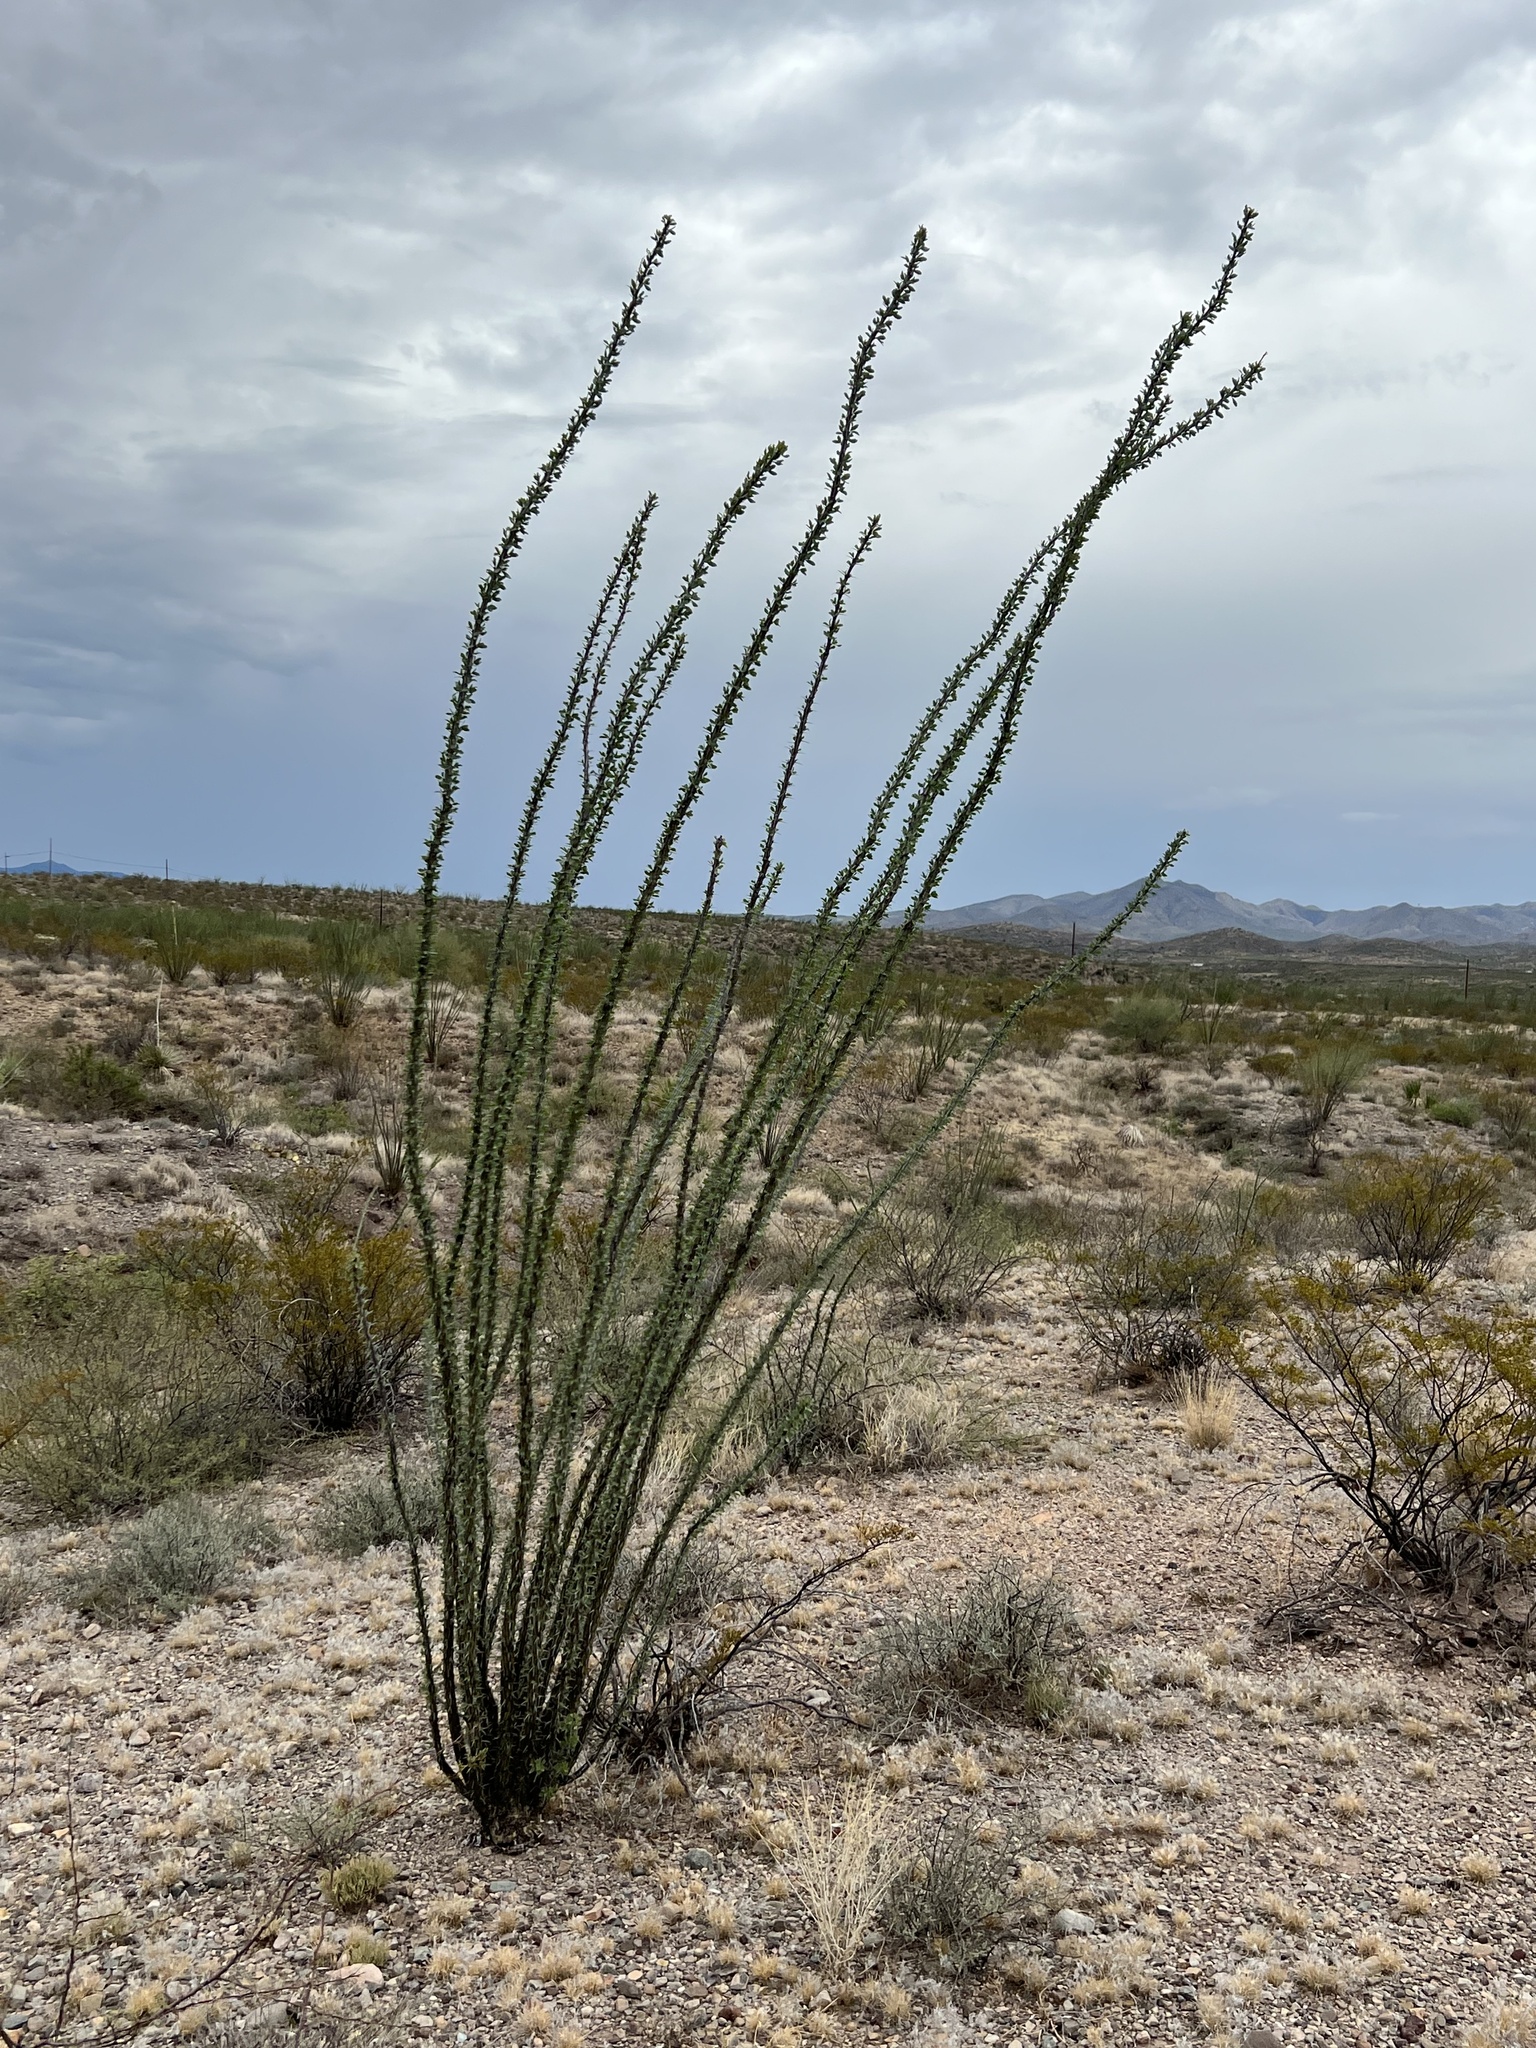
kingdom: Plantae
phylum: Tracheophyta
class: Magnoliopsida
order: Ericales
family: Fouquieriaceae
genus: Fouquieria
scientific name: Fouquieria splendens
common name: Vine-cactus
